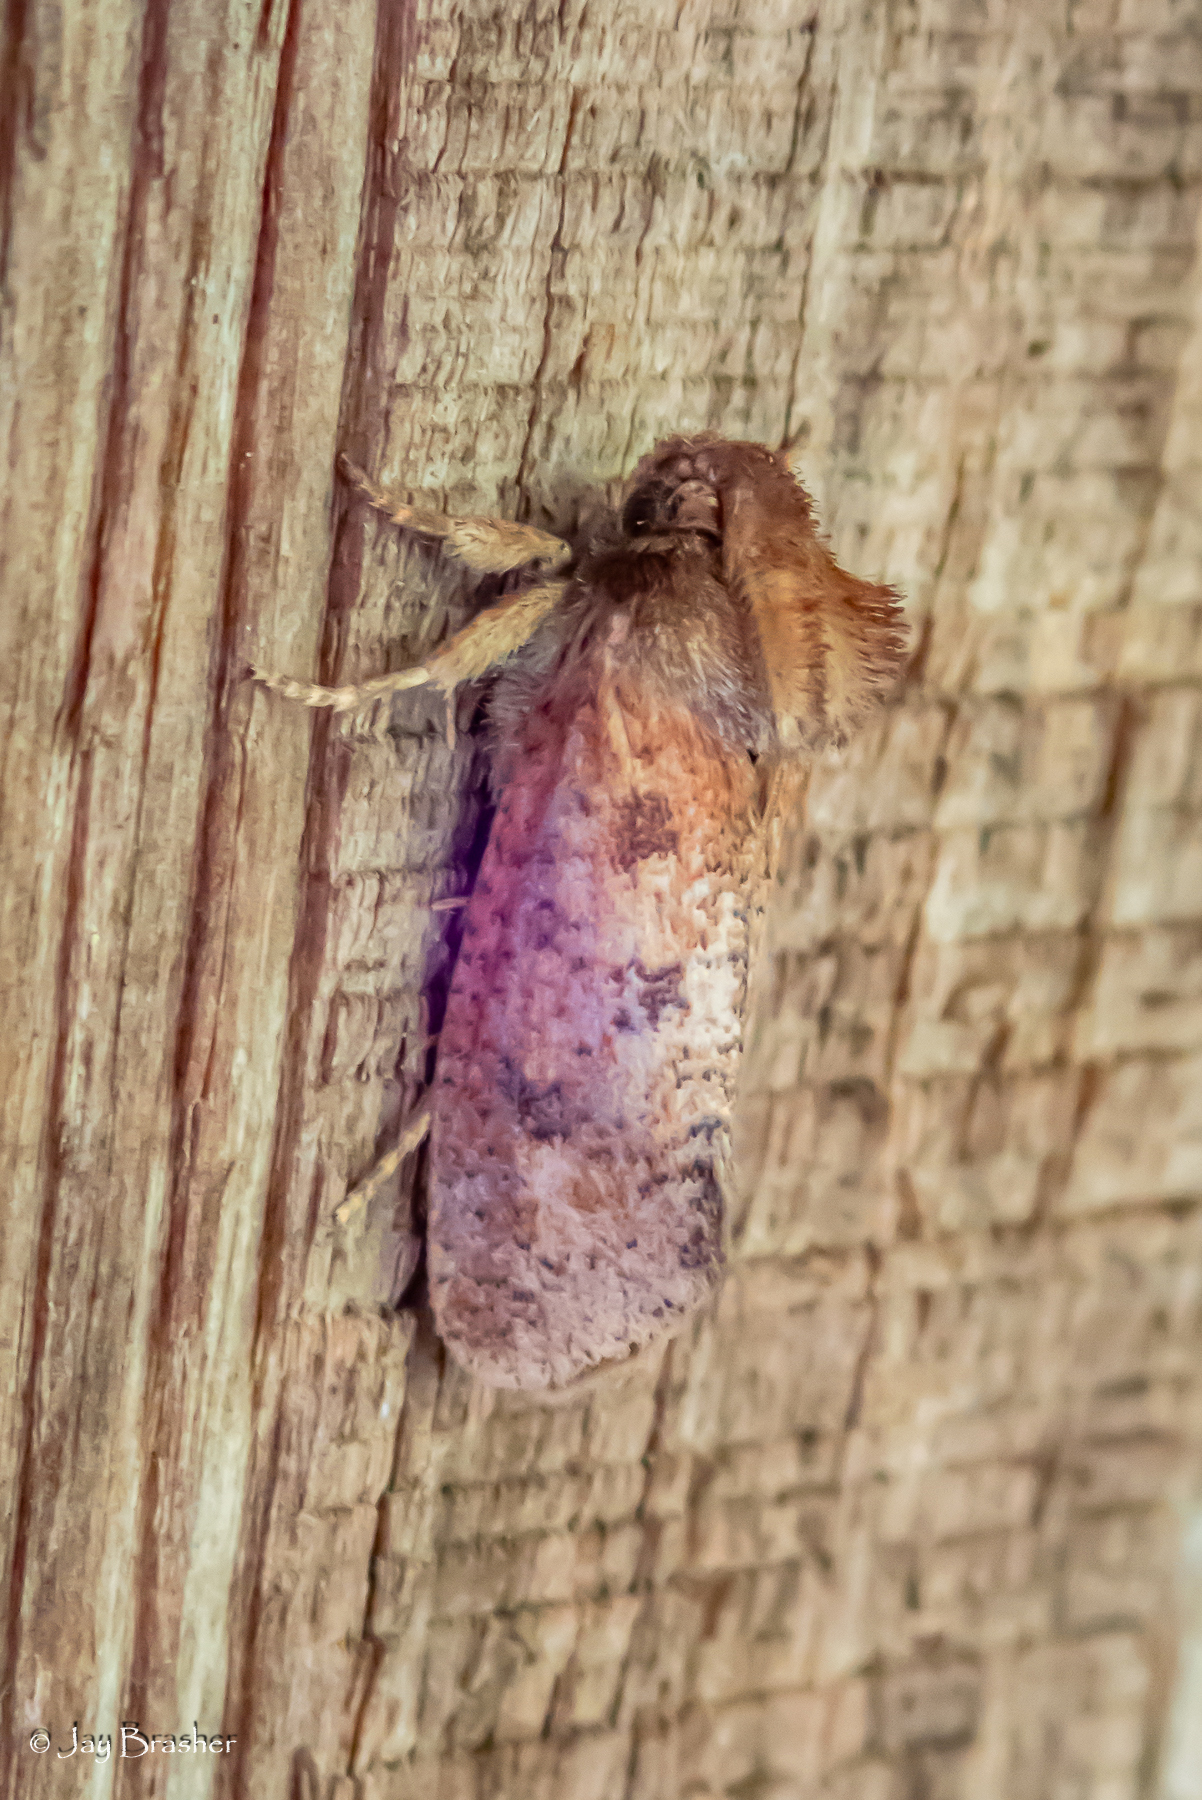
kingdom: Animalia
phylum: Arthropoda
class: Insecta
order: Lepidoptera
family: Tineidae
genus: Acrolophus
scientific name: Acrolophus plumifrontella
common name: Eastern grass tubeworm moth
